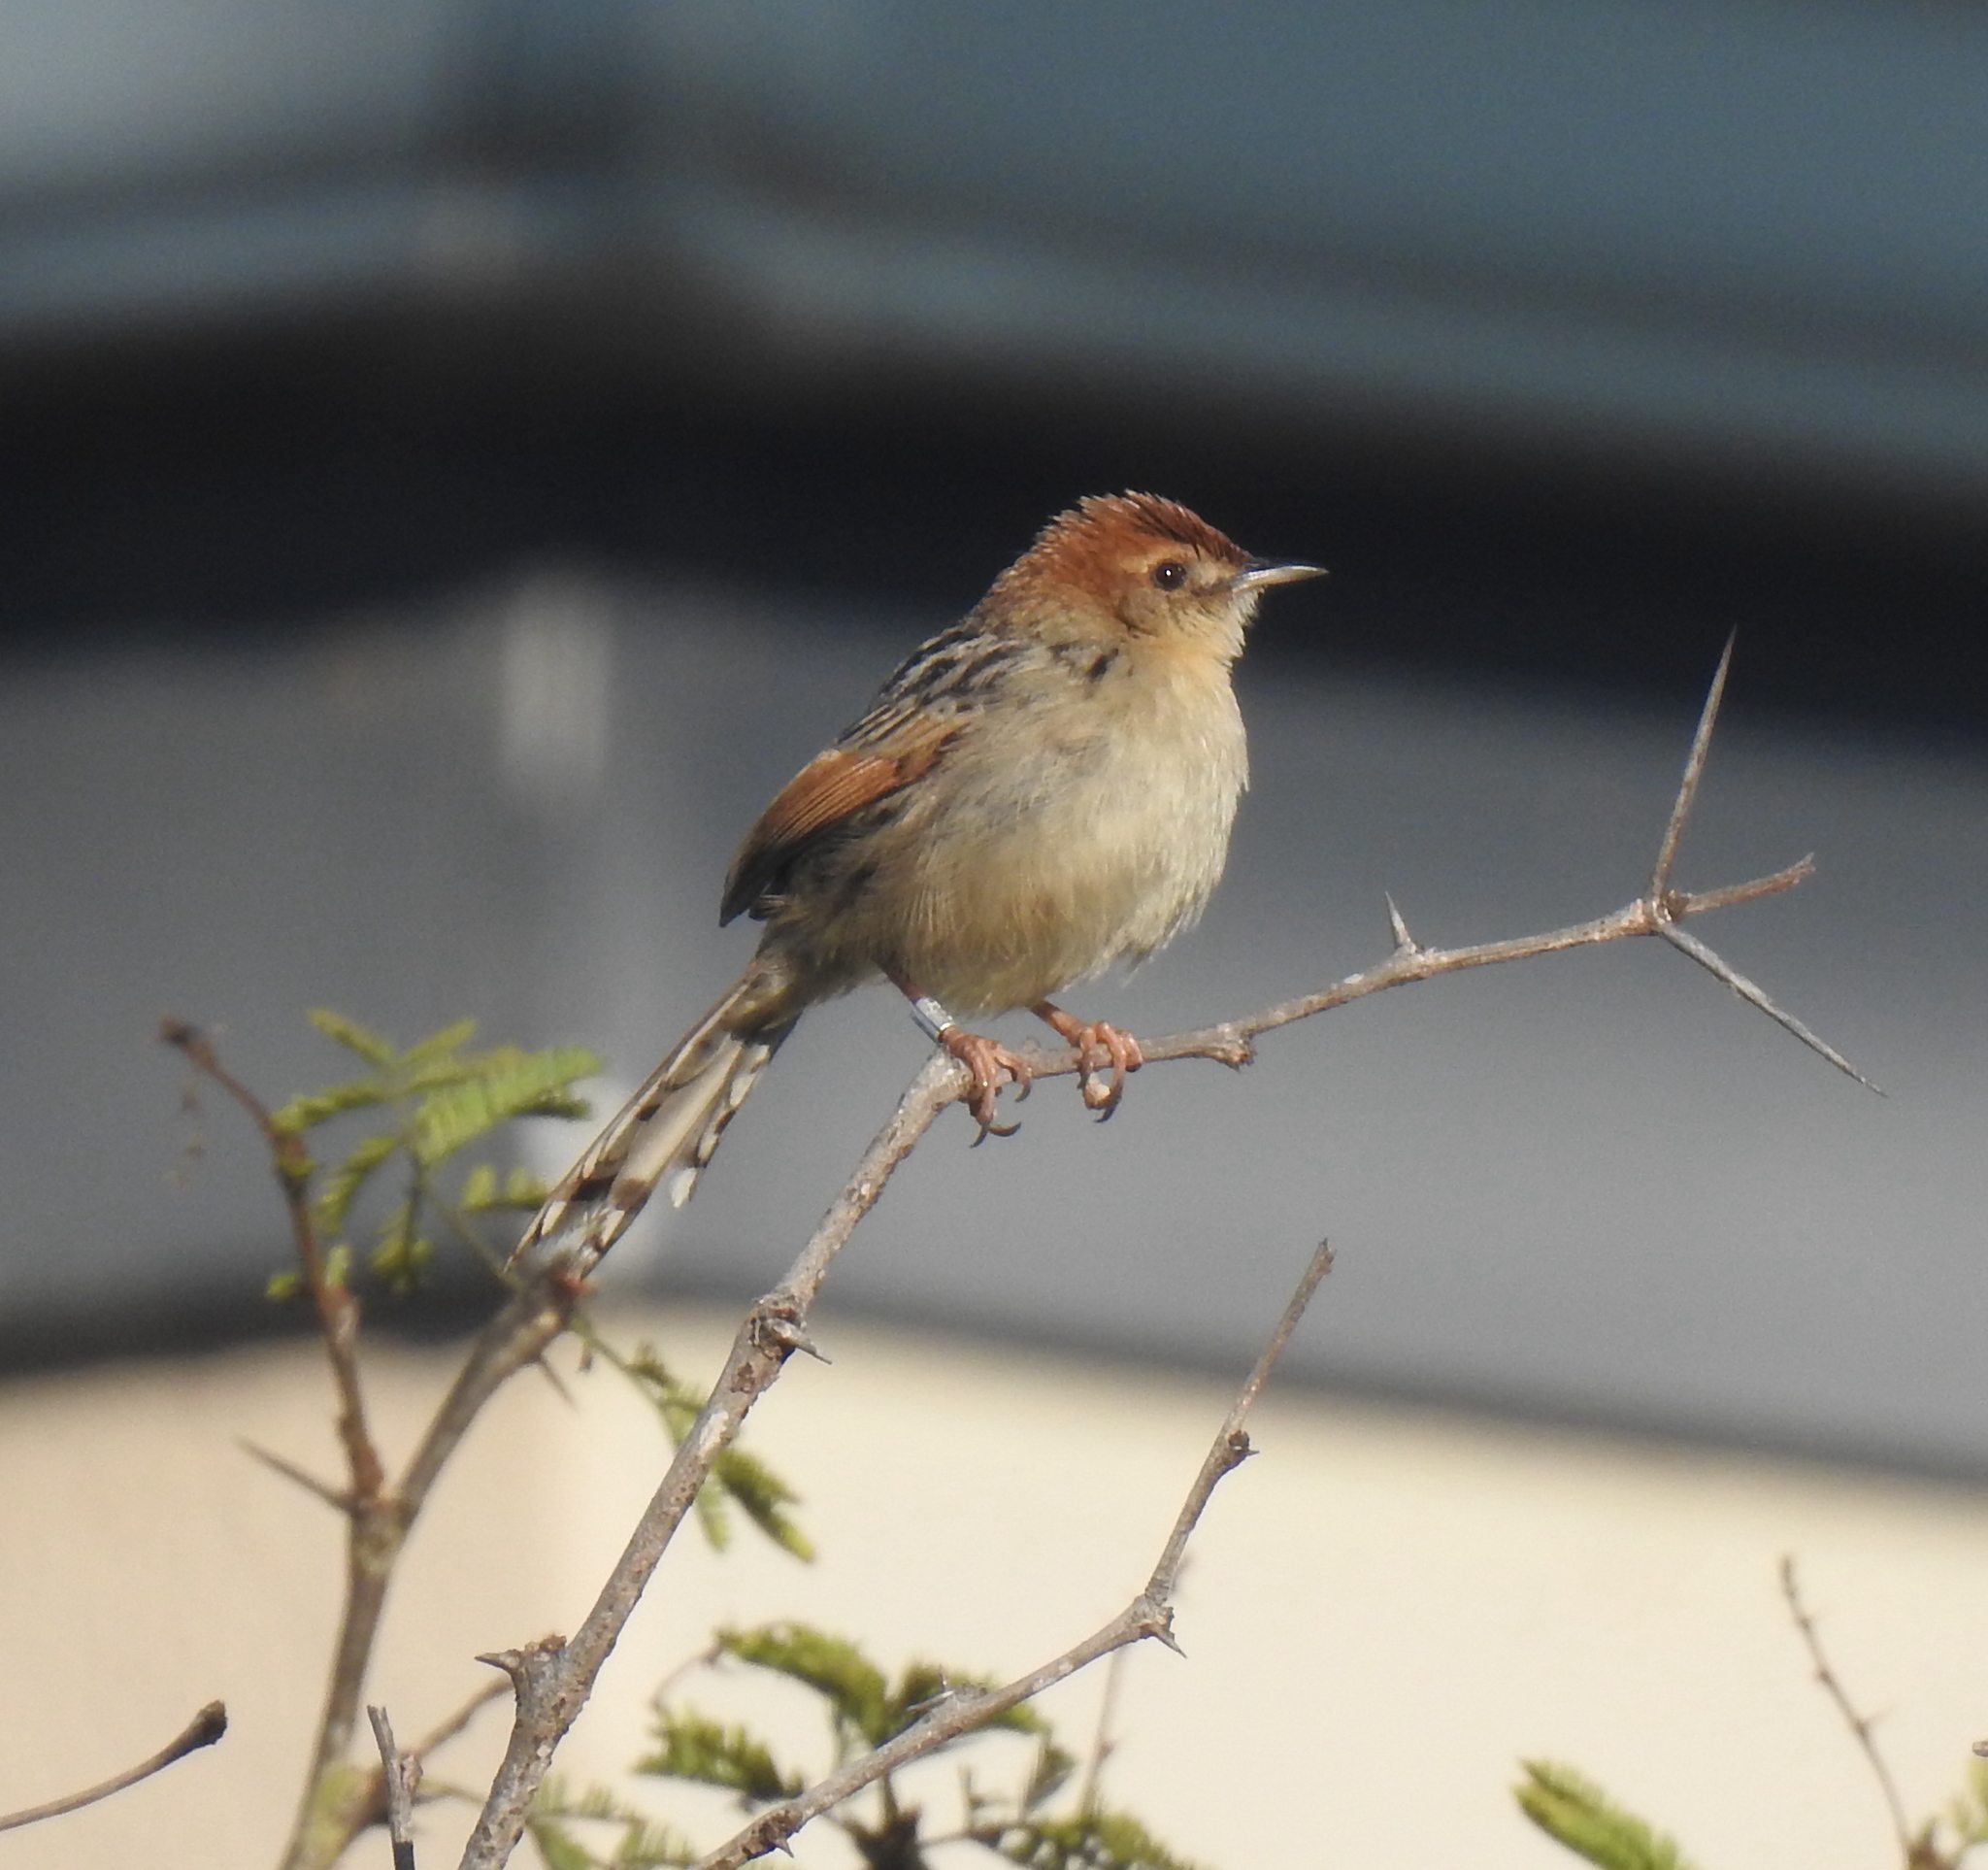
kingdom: Animalia
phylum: Chordata
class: Aves
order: Passeriformes
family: Cisticolidae
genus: Cisticola
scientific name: Cisticola tinniens
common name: Levaillant's cisticola
